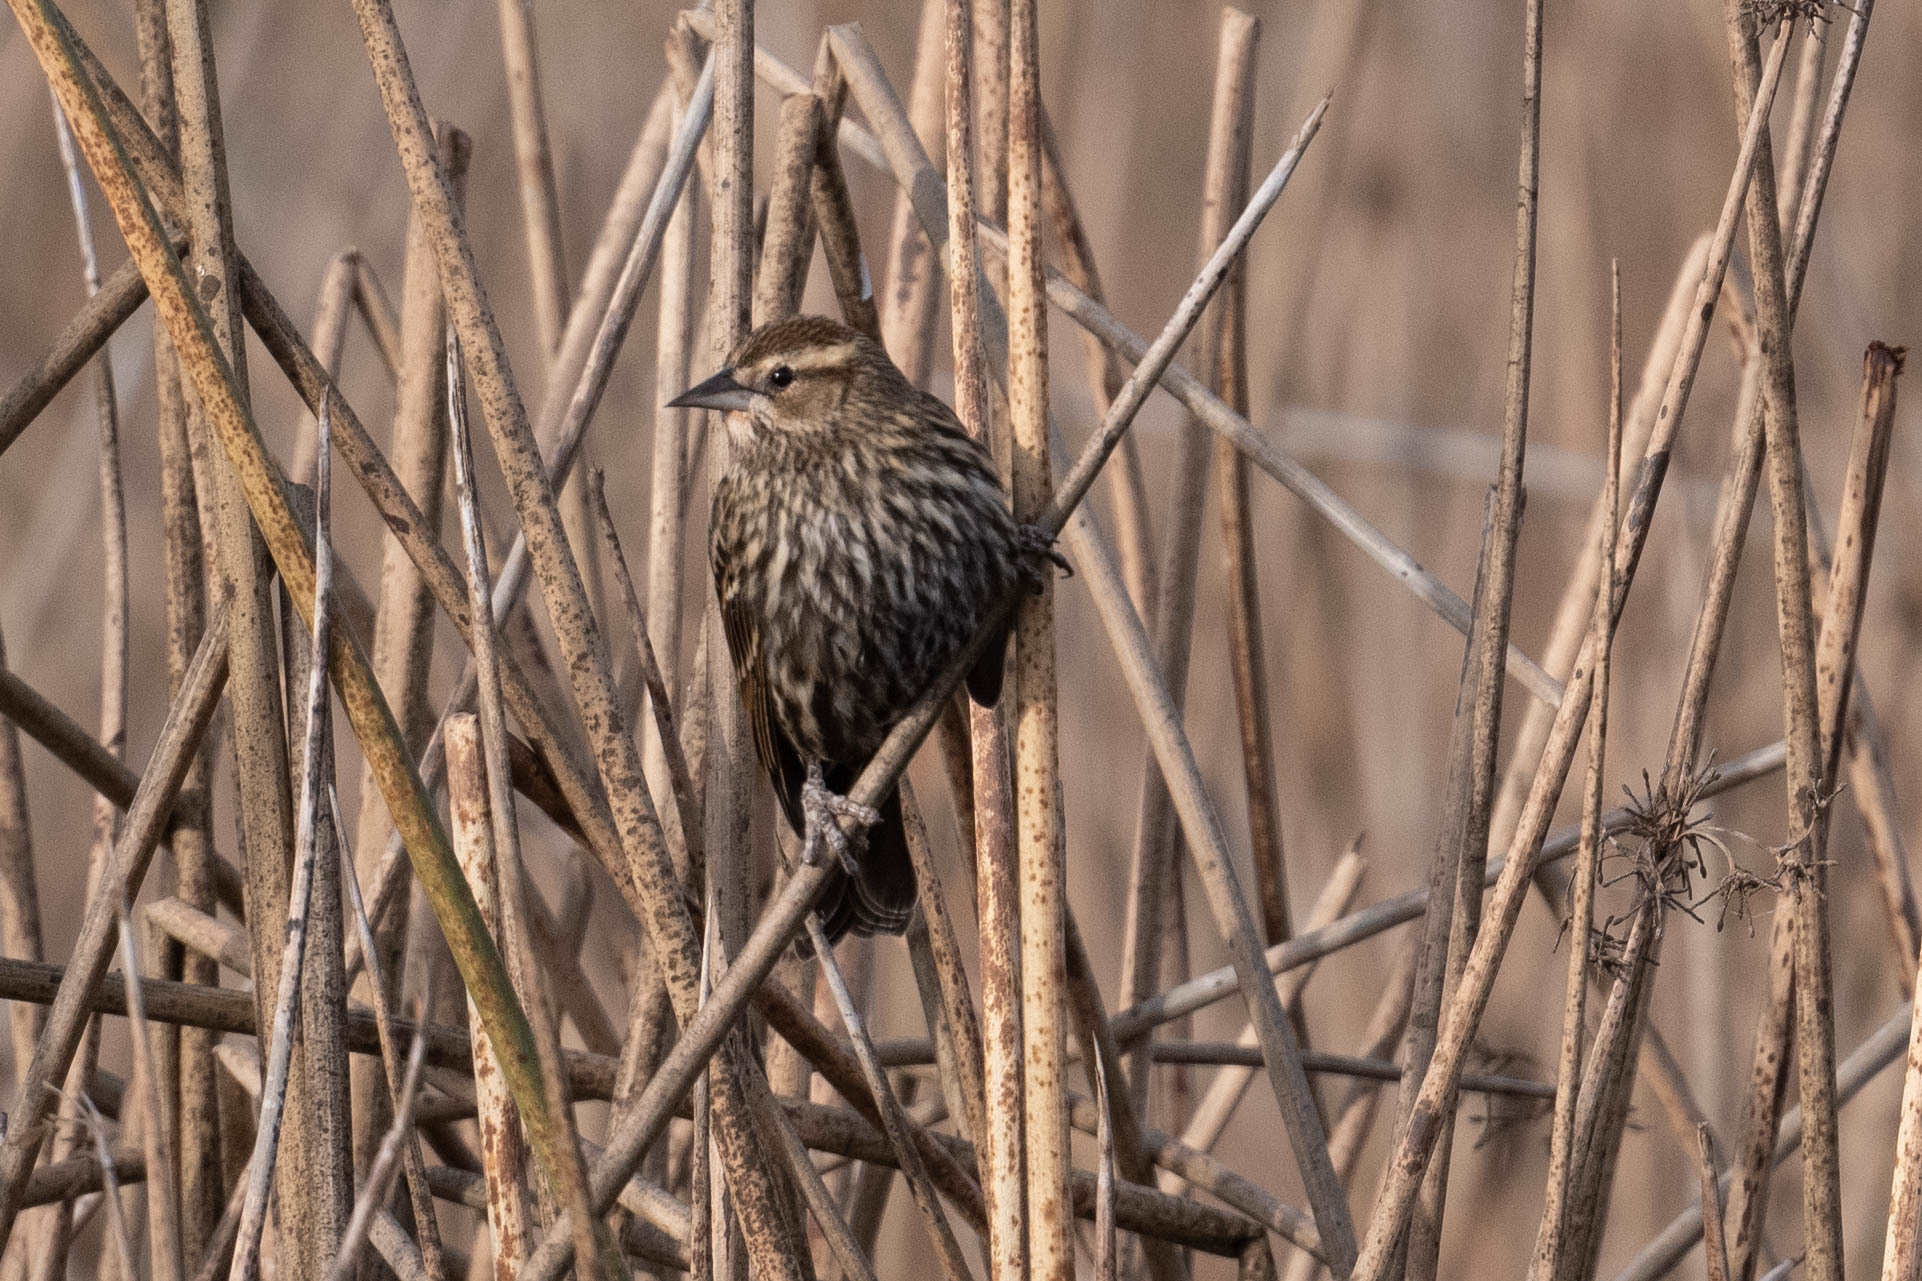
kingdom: Animalia
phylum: Chordata
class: Aves
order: Passeriformes
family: Icteridae
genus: Agelaius
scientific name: Agelaius phoeniceus
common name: Red-winged blackbird
